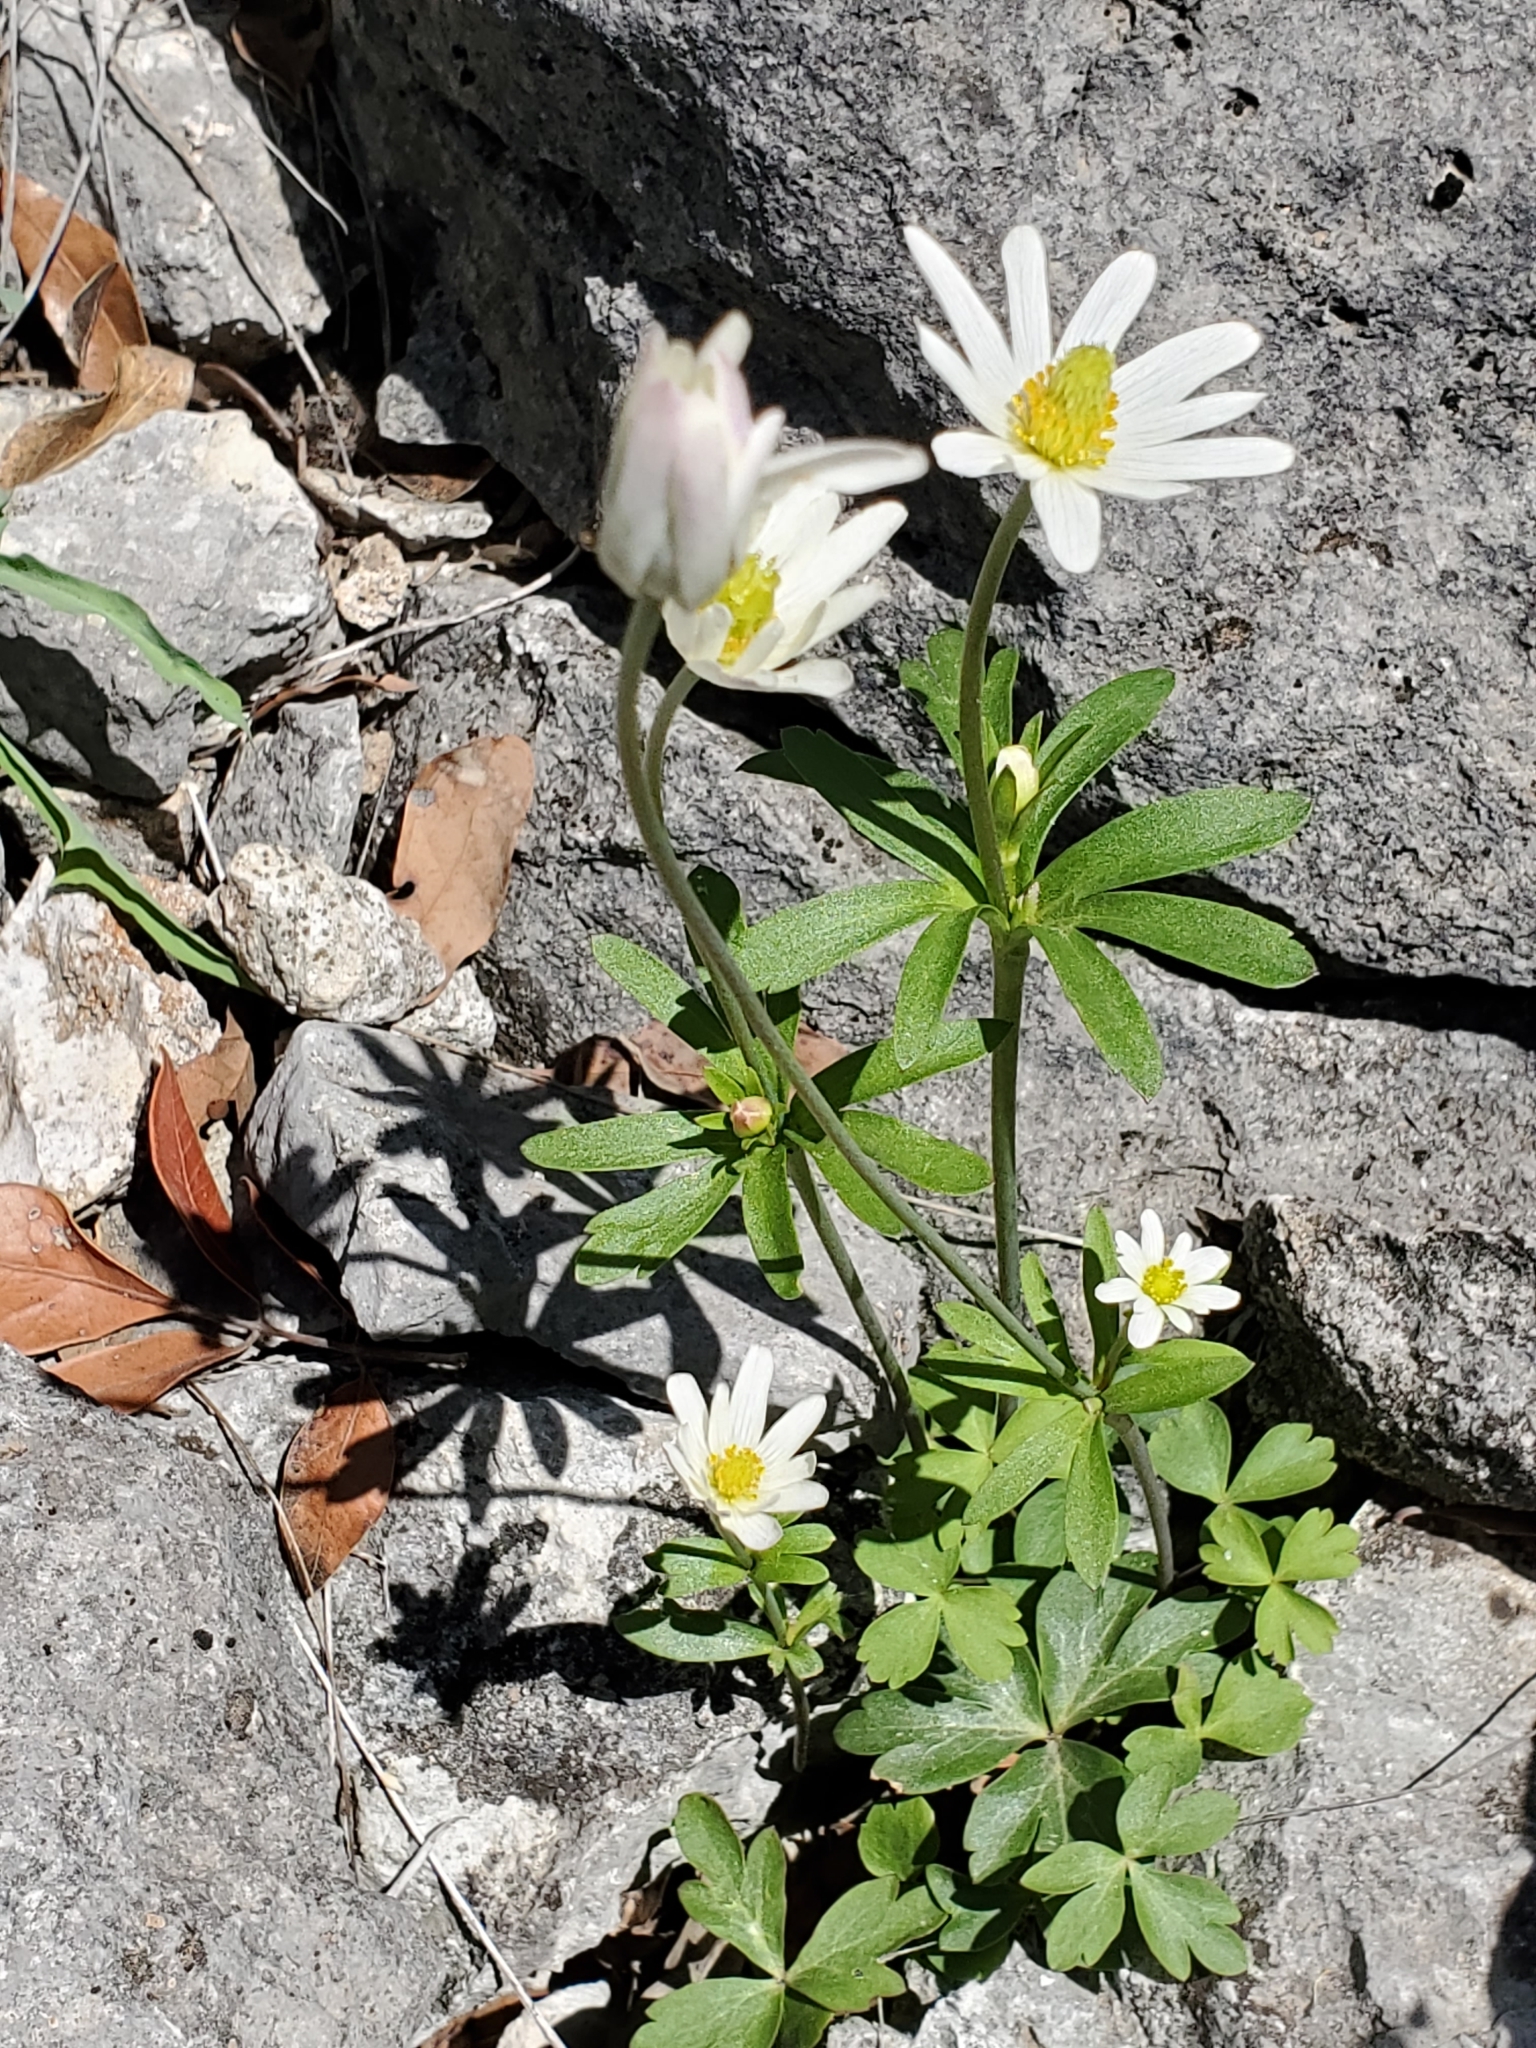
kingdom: Plantae
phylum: Tracheophyta
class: Magnoliopsida
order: Ranunculales
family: Ranunculaceae
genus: Anemone
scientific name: Anemone edwardsiana
